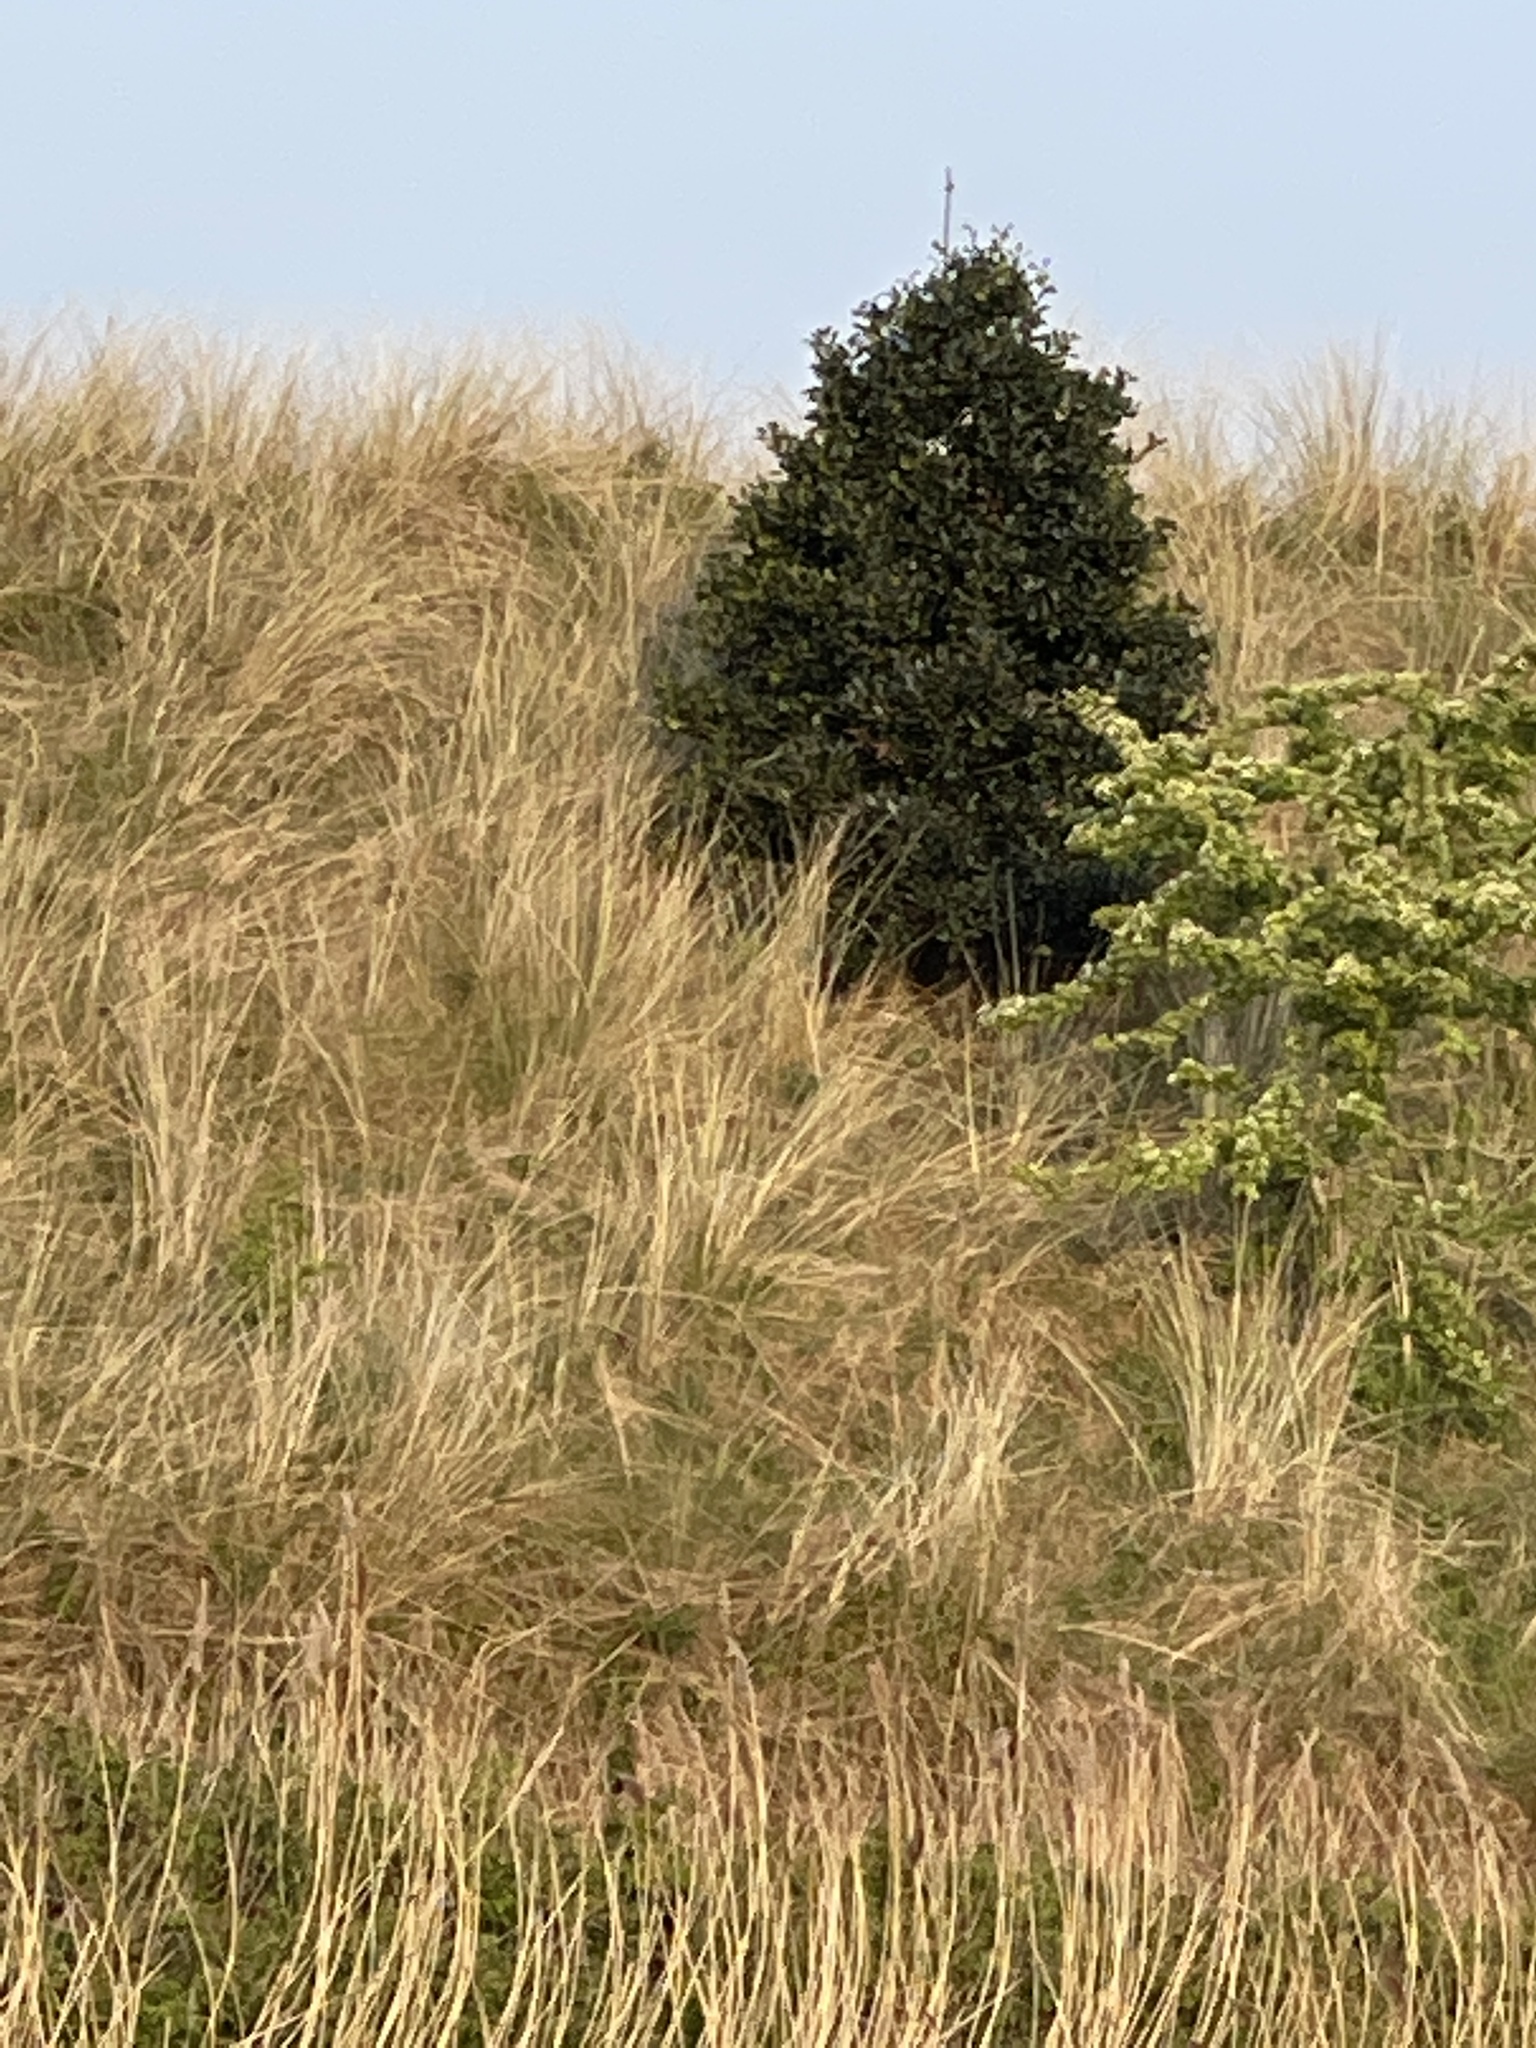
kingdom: Plantae
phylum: Tracheophyta
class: Magnoliopsida
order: Aquifoliales
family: Aquifoliaceae
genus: Ilex
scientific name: Ilex aquifolium
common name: English holly
